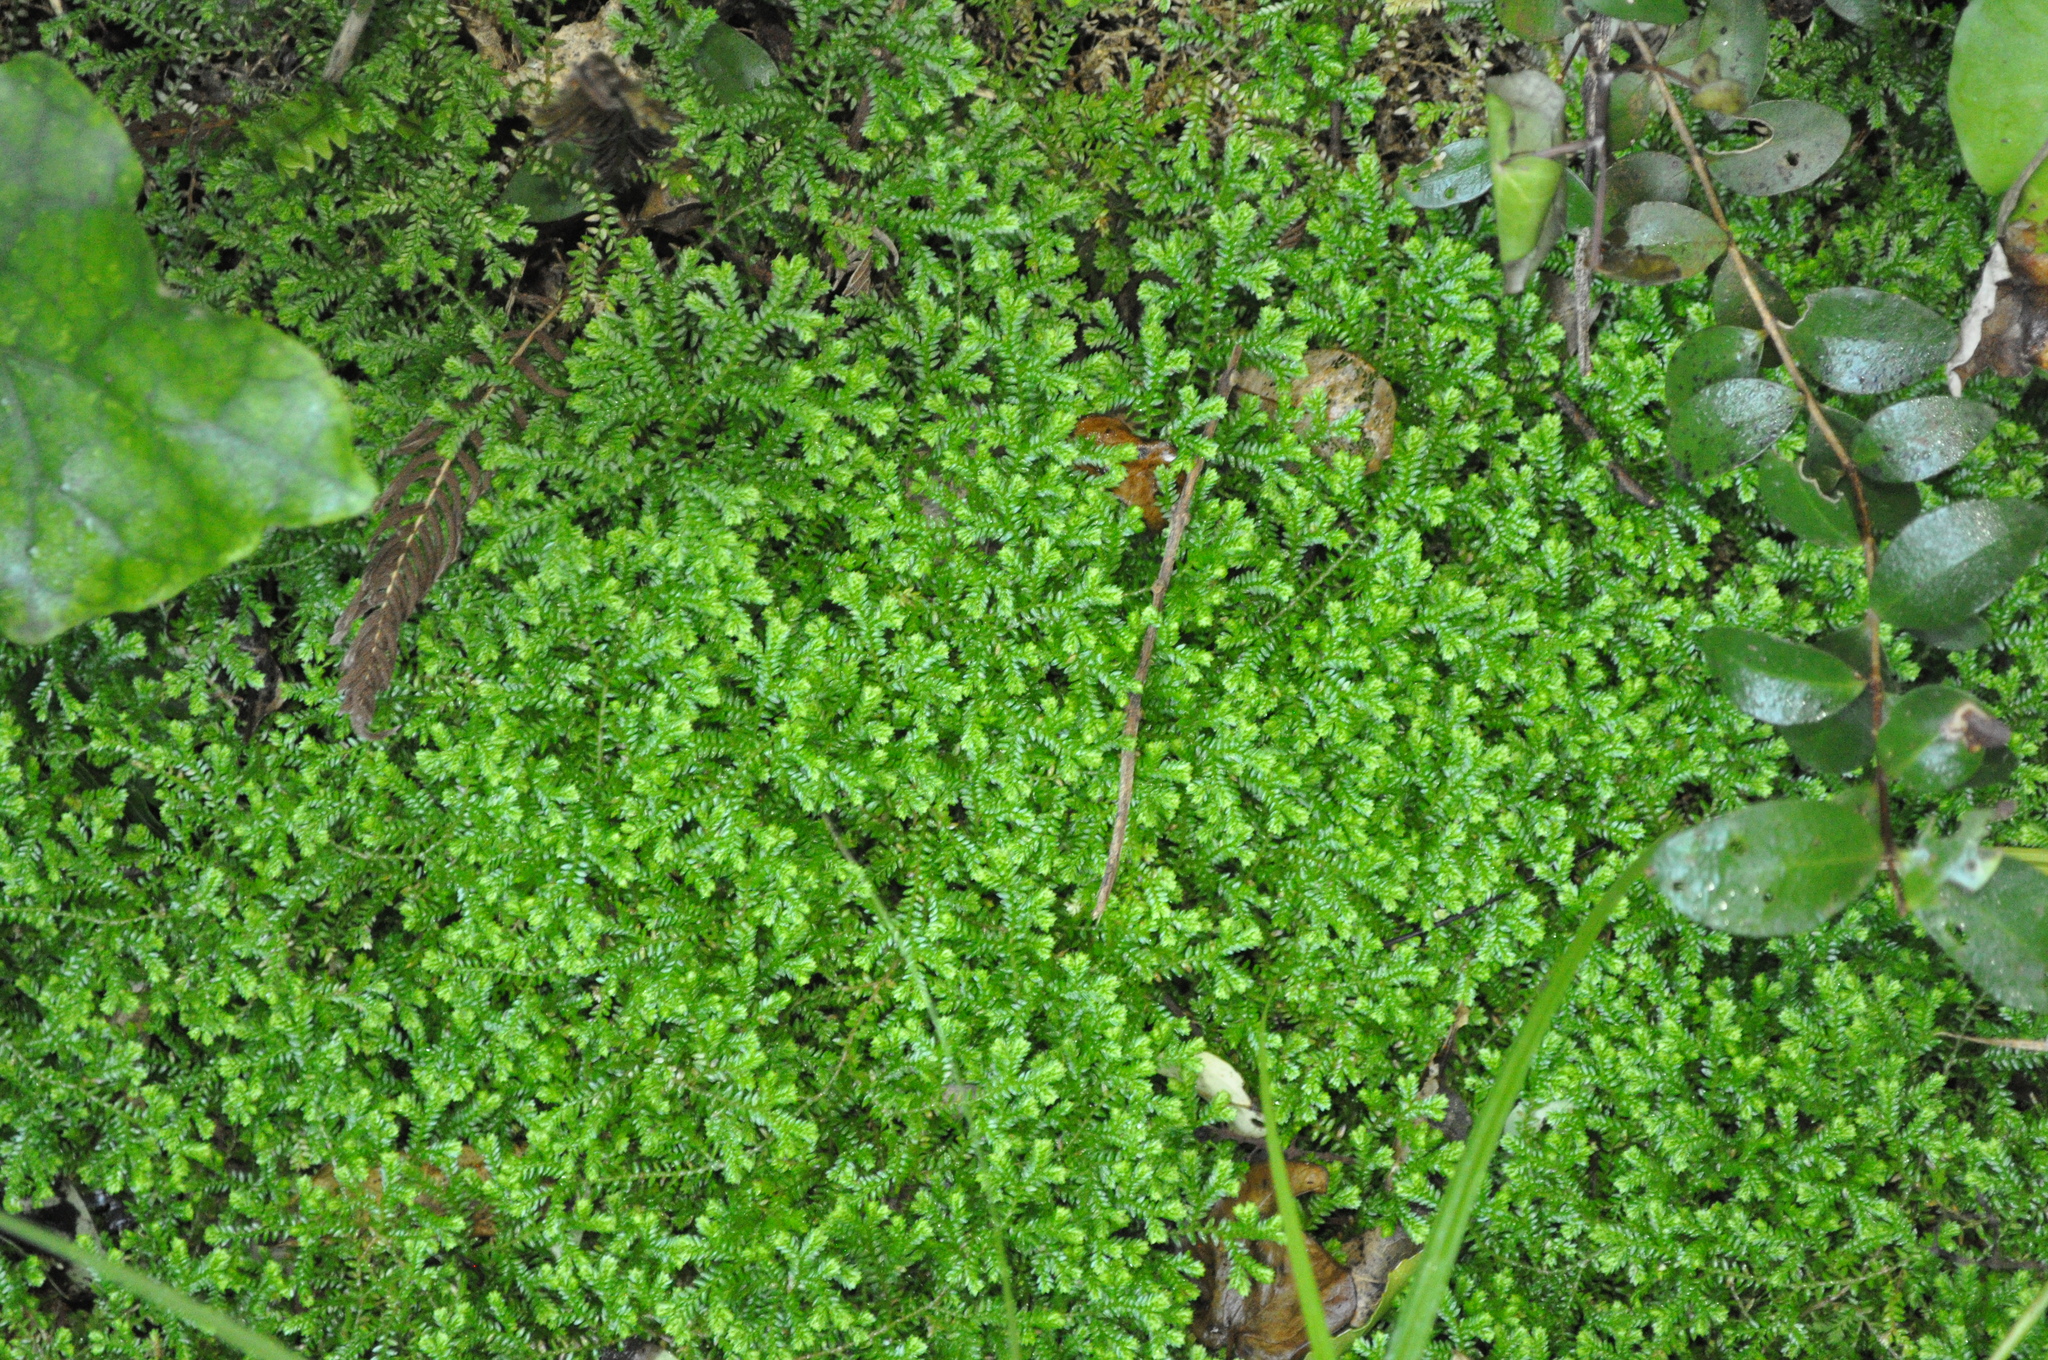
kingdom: Plantae
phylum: Tracheophyta
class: Lycopodiopsida
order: Selaginellales
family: Selaginellaceae
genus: Selaginella
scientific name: Selaginella kraussiana
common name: Krauss' spikemoss
